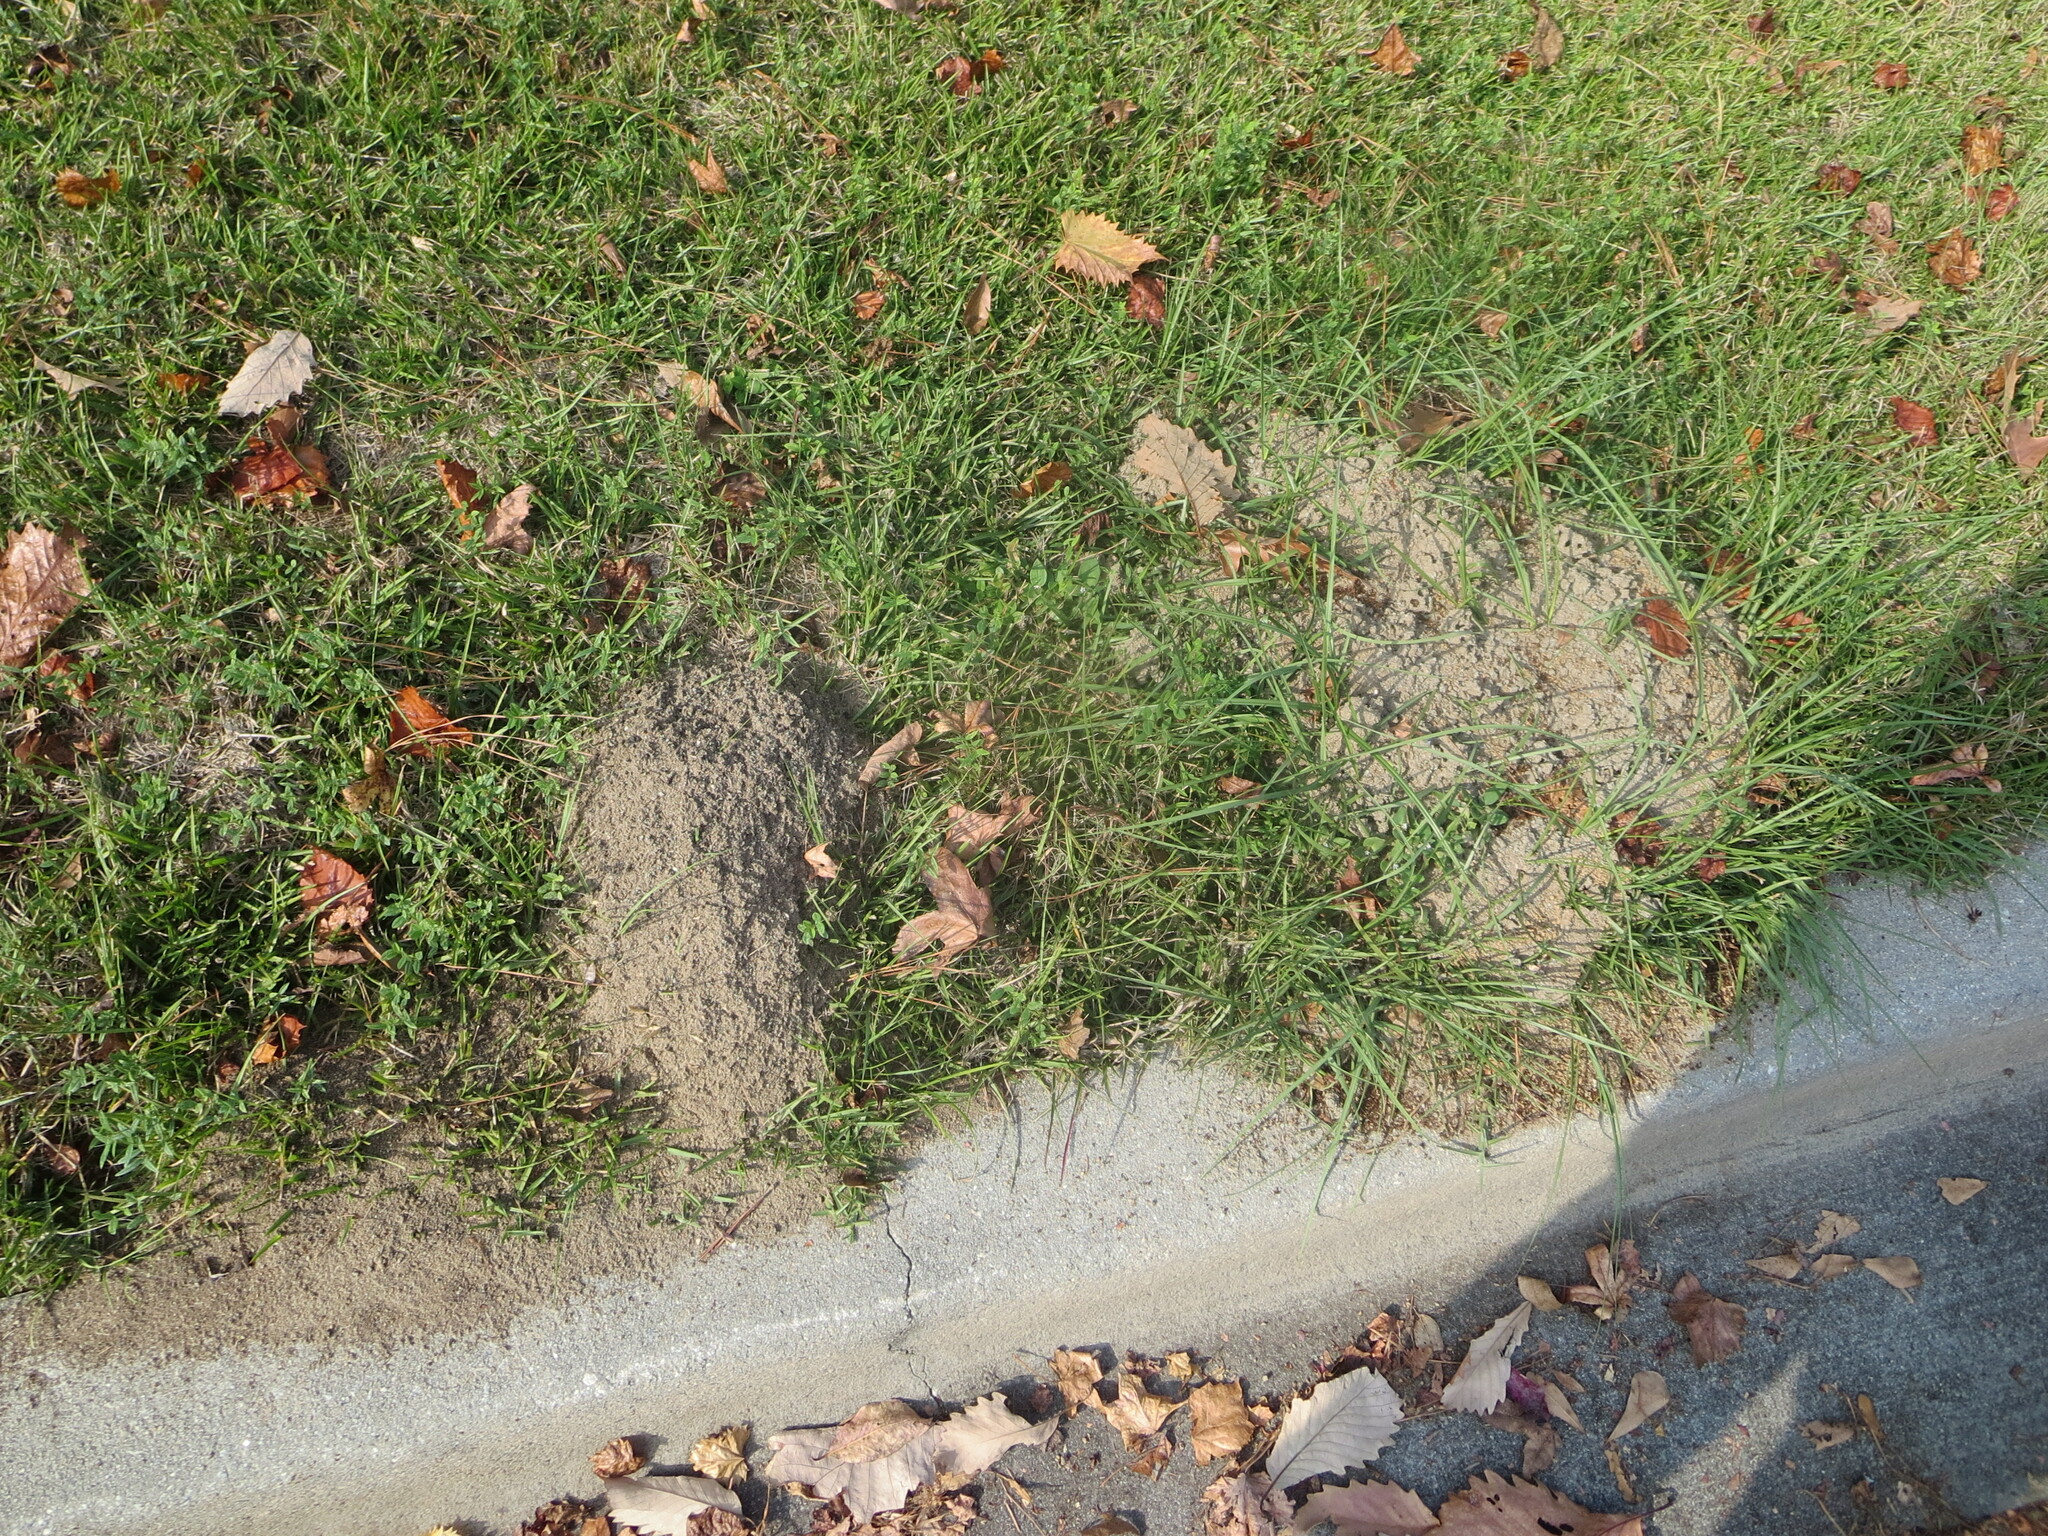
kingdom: Animalia
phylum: Arthropoda
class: Insecta
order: Hymenoptera
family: Formicidae
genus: Solenopsis
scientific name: Solenopsis invicta
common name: Red imported fire ant
